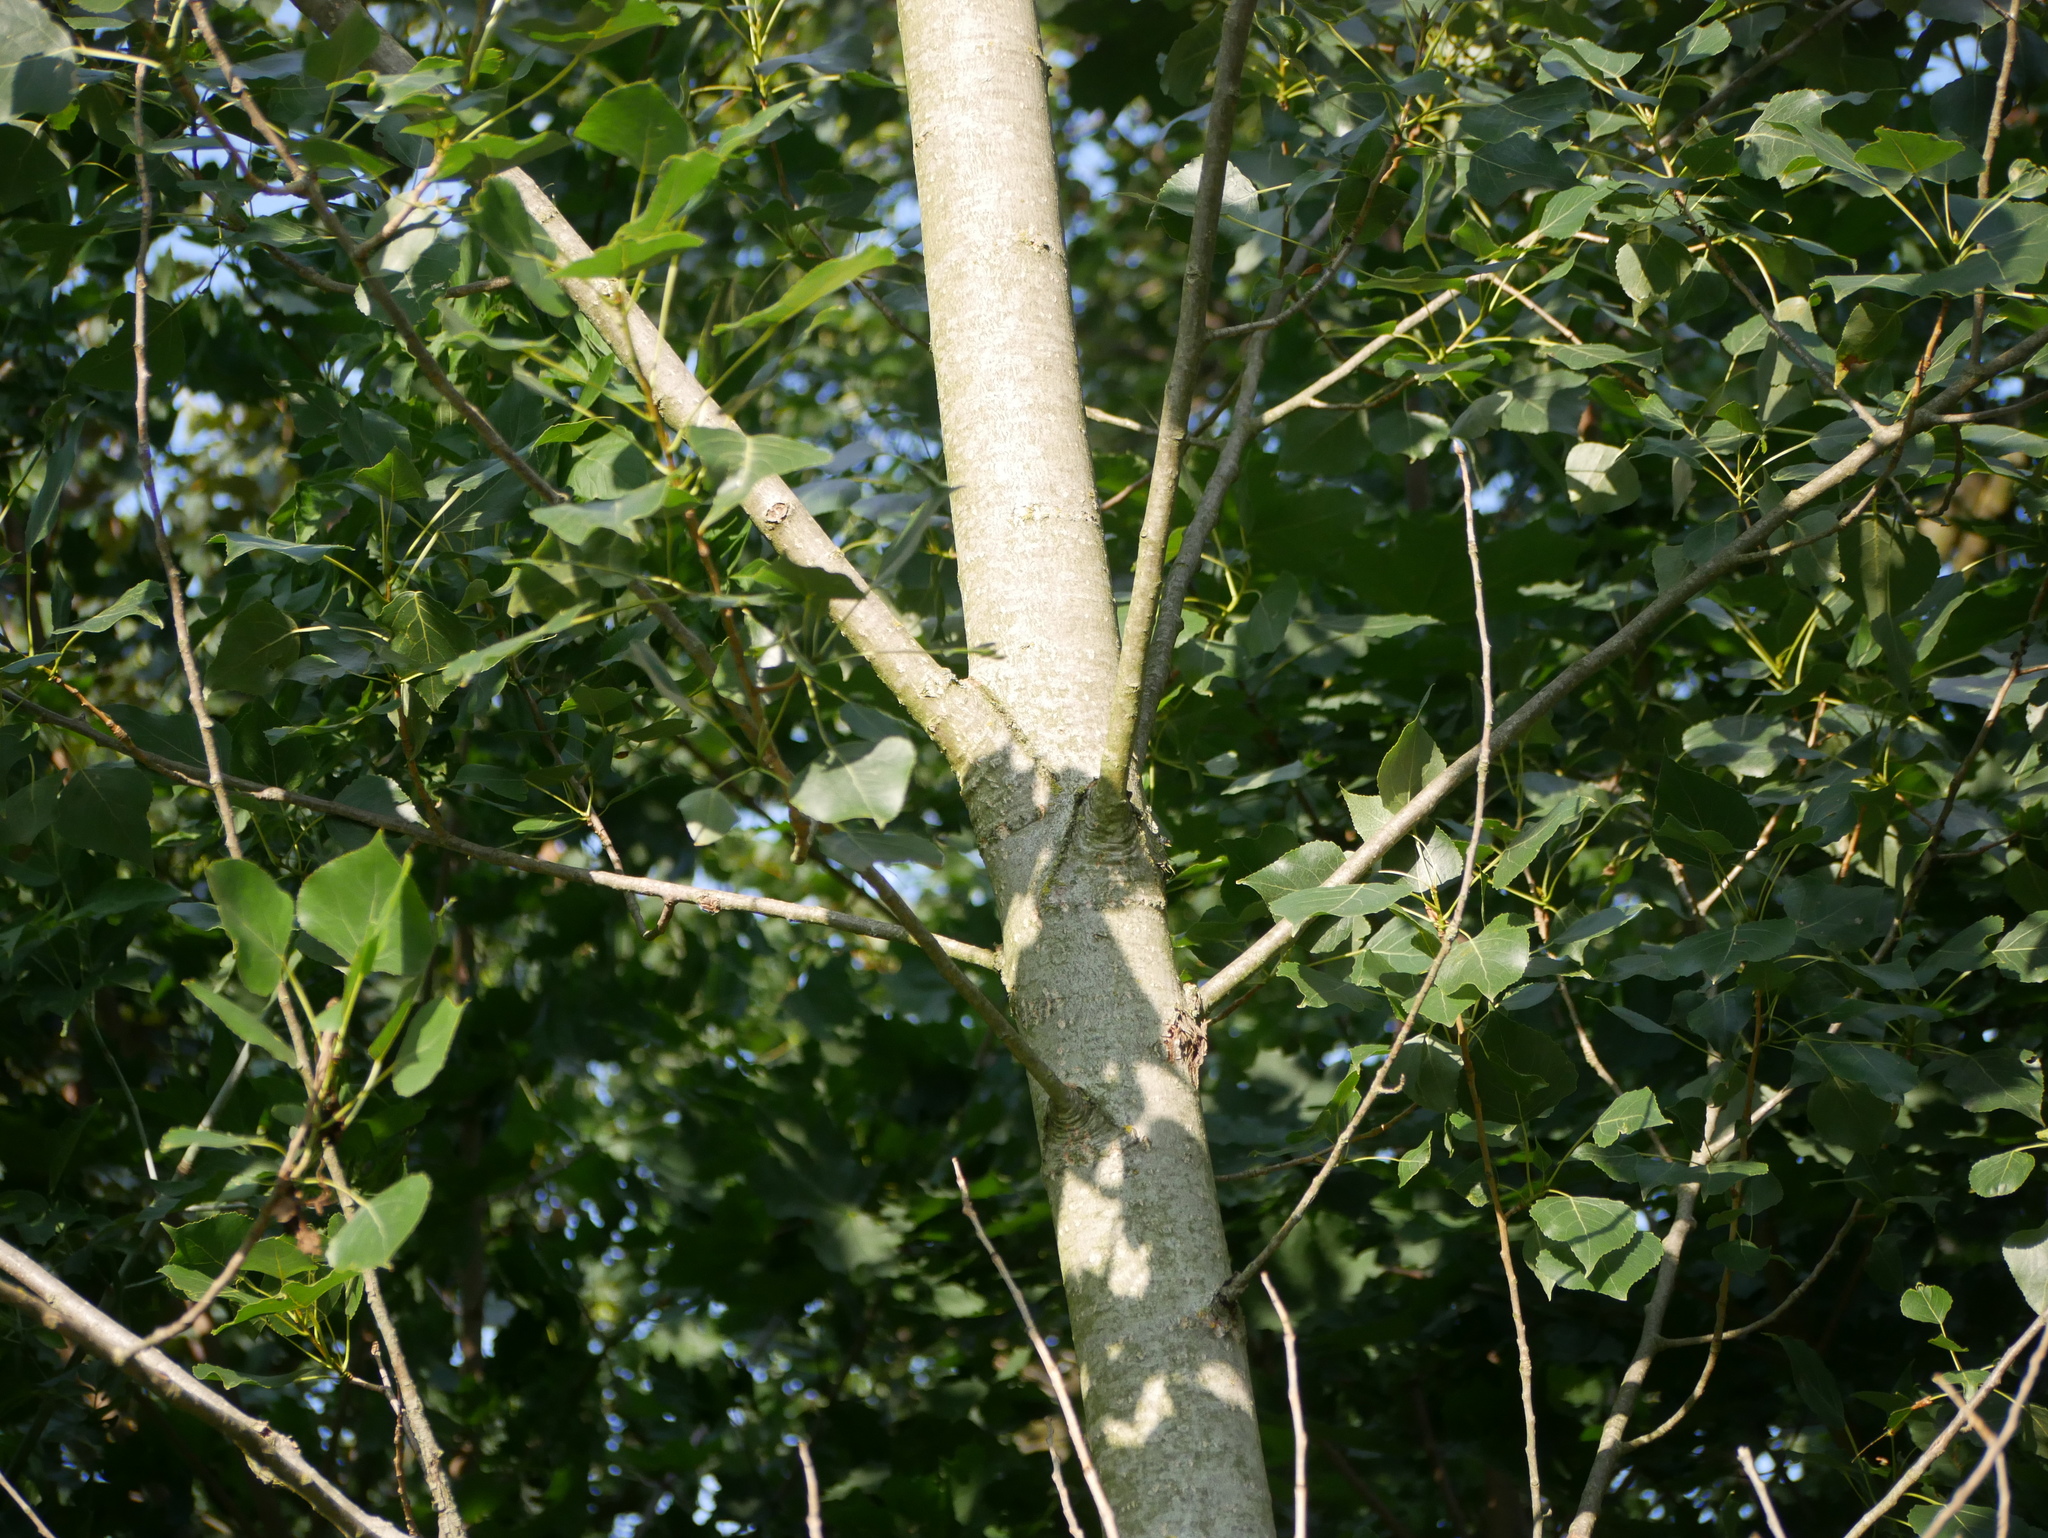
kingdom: Plantae
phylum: Tracheophyta
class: Magnoliopsida
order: Malpighiales
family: Salicaceae
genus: Populus
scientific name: Populus nigra
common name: Black poplar
